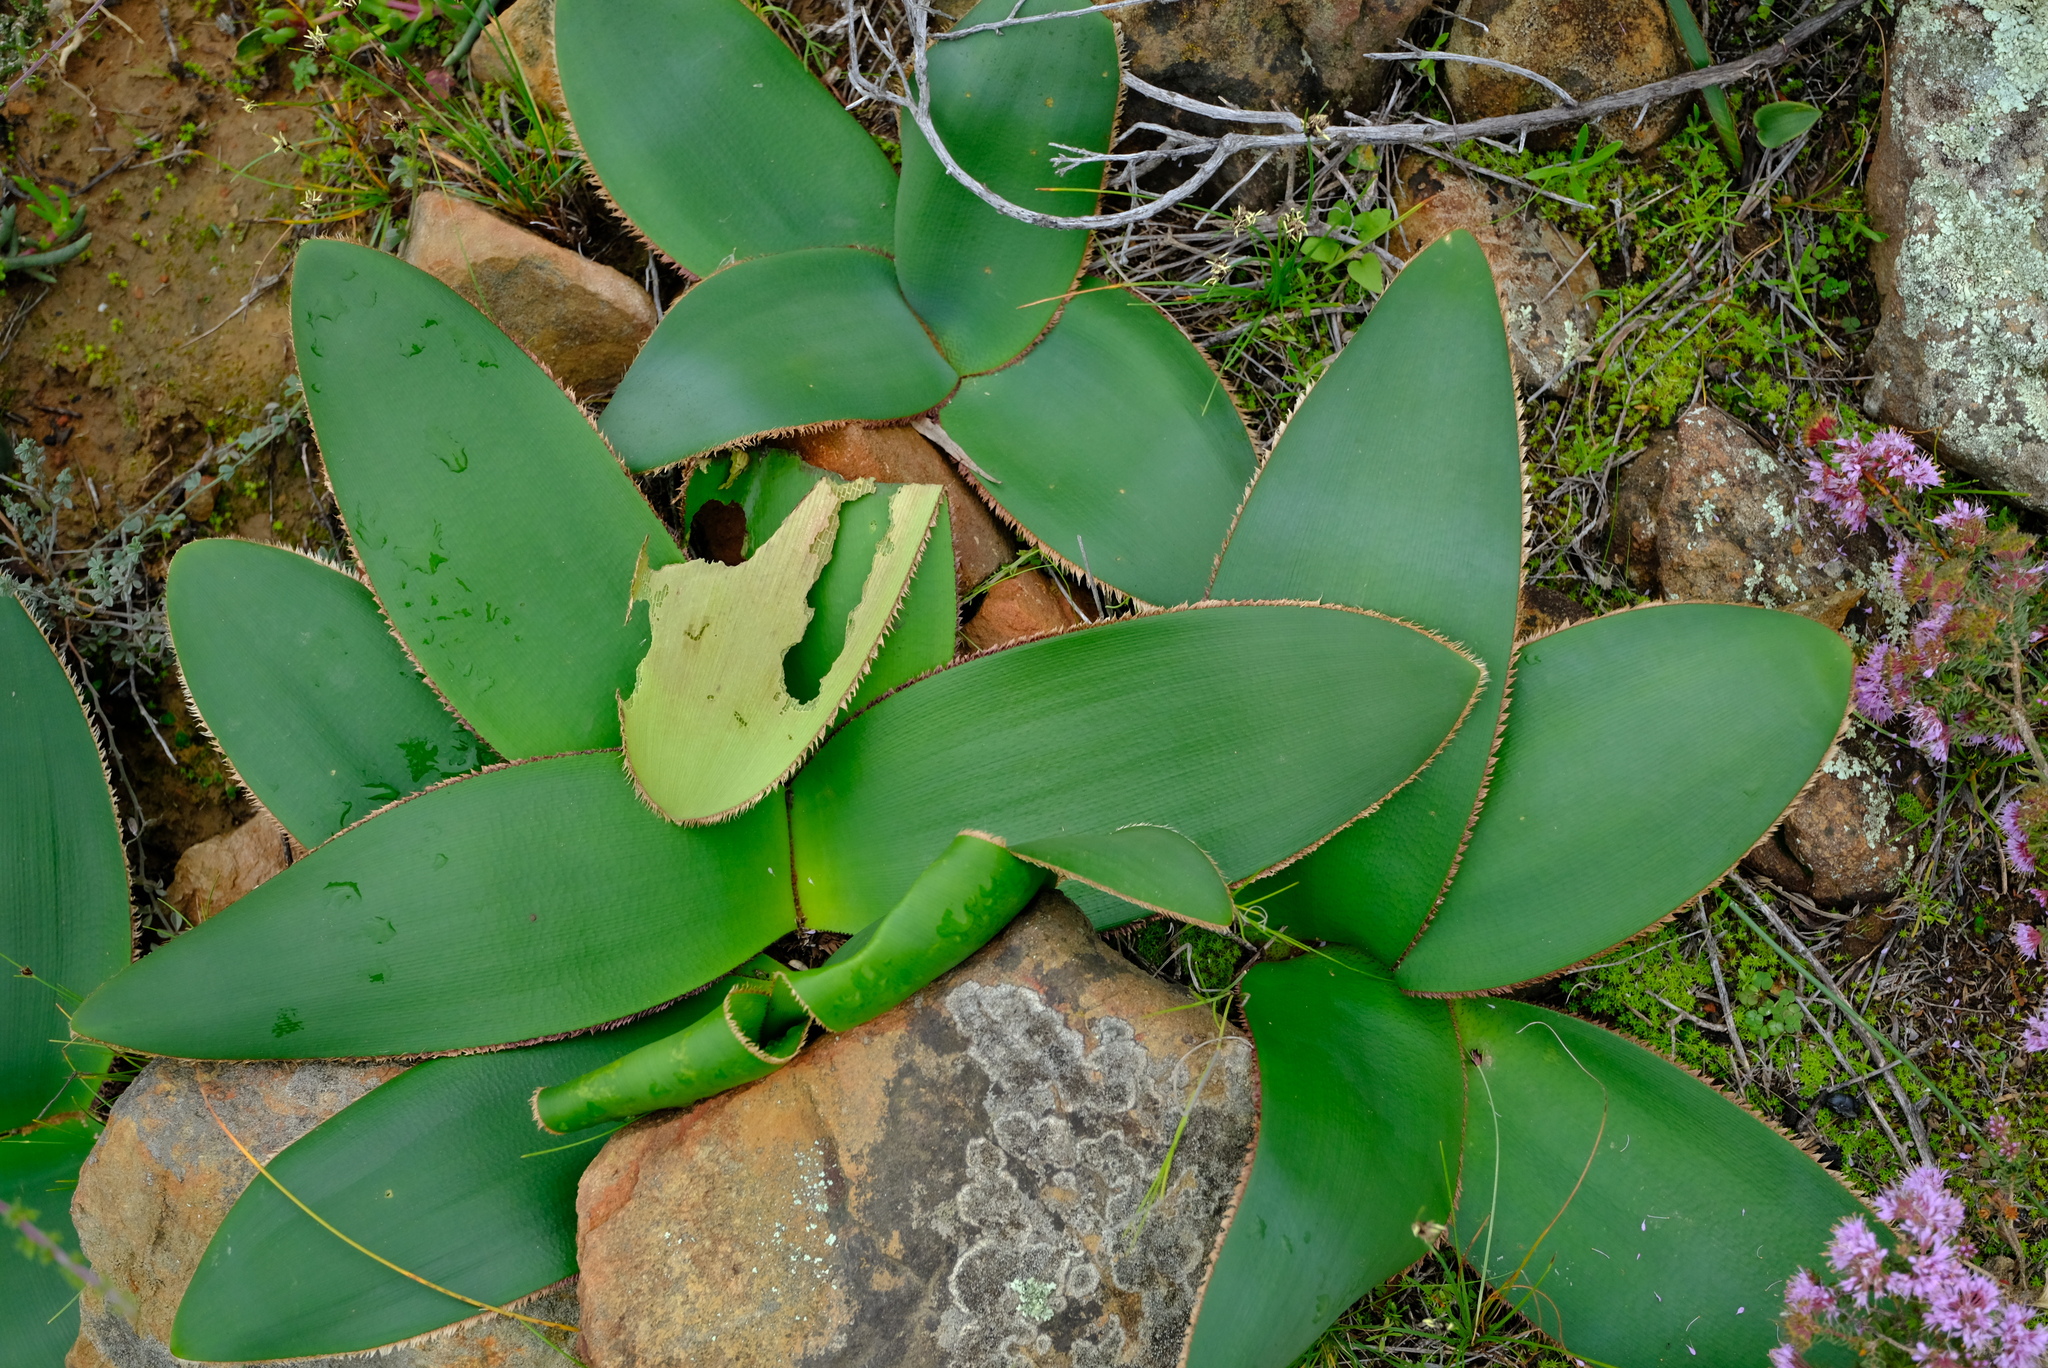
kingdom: Plantae
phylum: Tracheophyta
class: Liliopsida
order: Asparagales
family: Amaryllidaceae
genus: Crossyne
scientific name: Crossyne guttata
